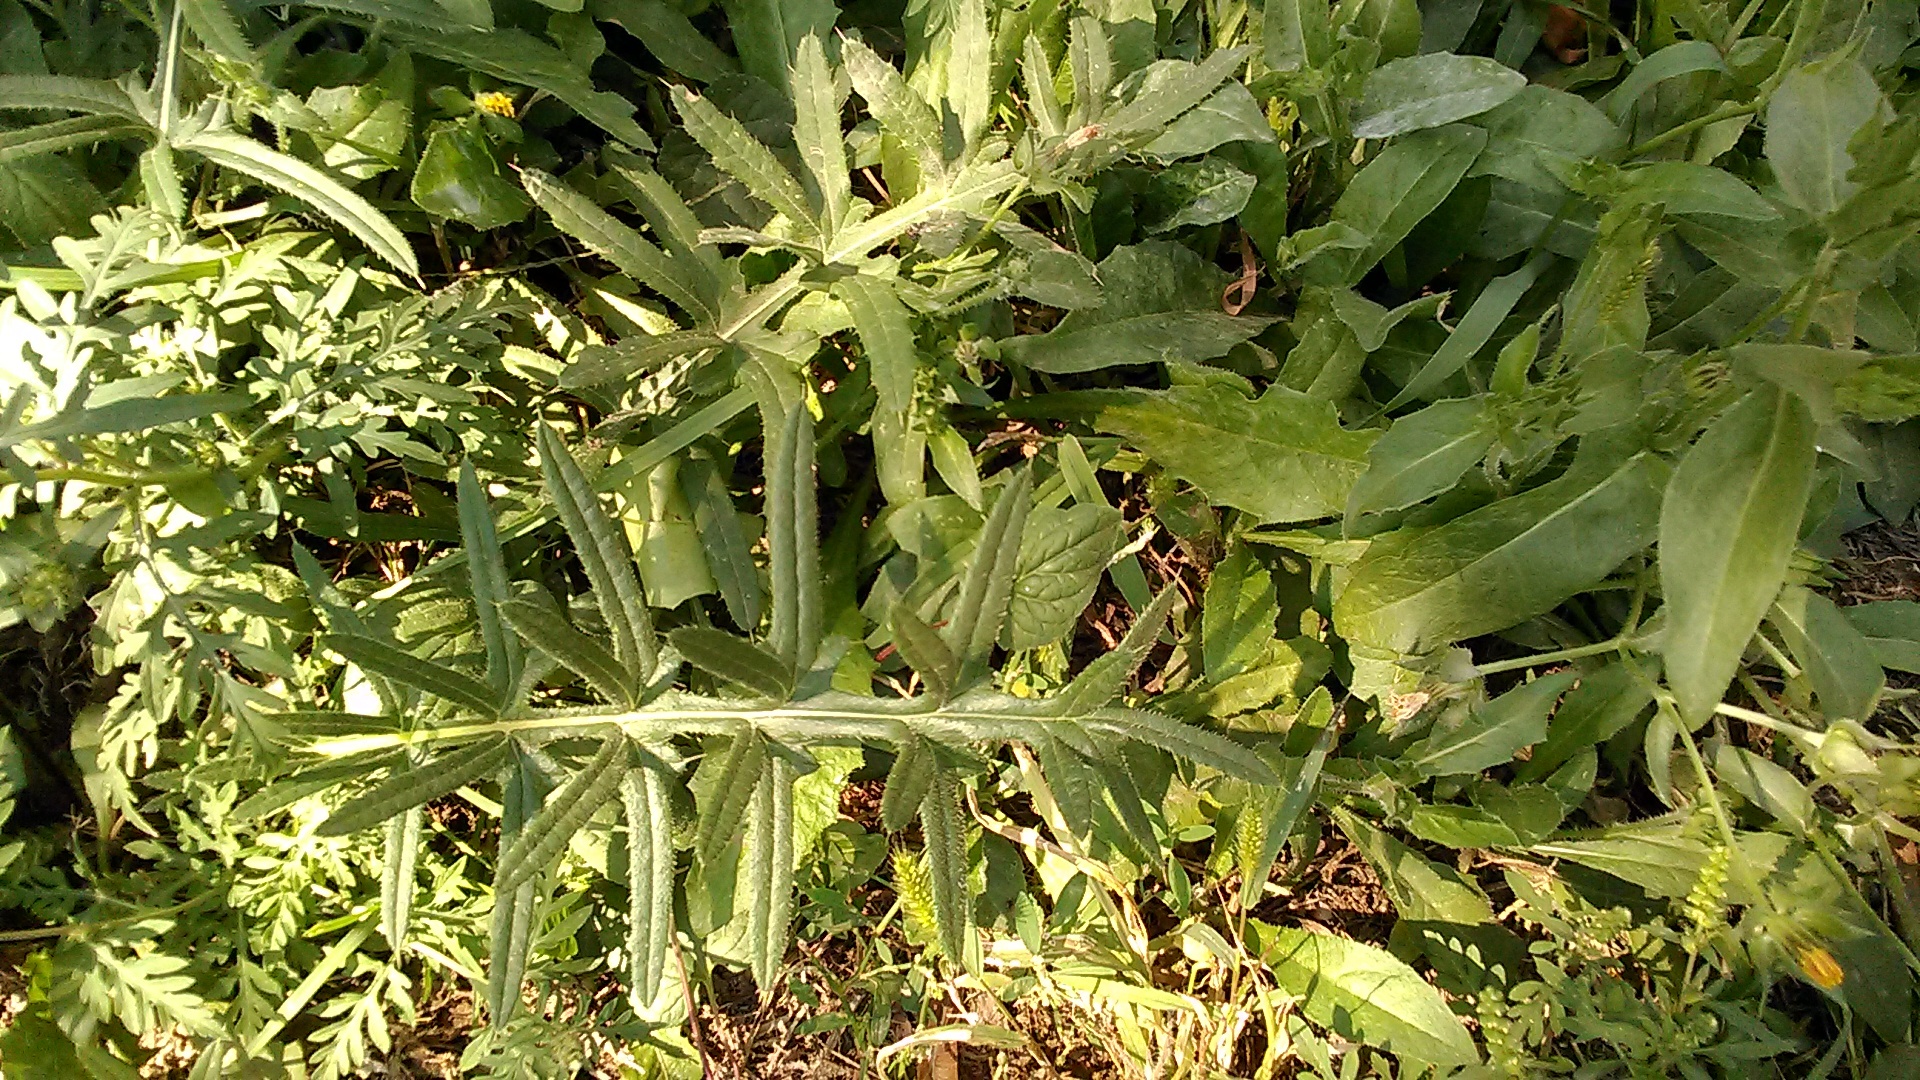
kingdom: Plantae
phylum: Tracheophyta
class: Magnoliopsida
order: Asterales
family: Asteraceae
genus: Cirsium
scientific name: Cirsium
